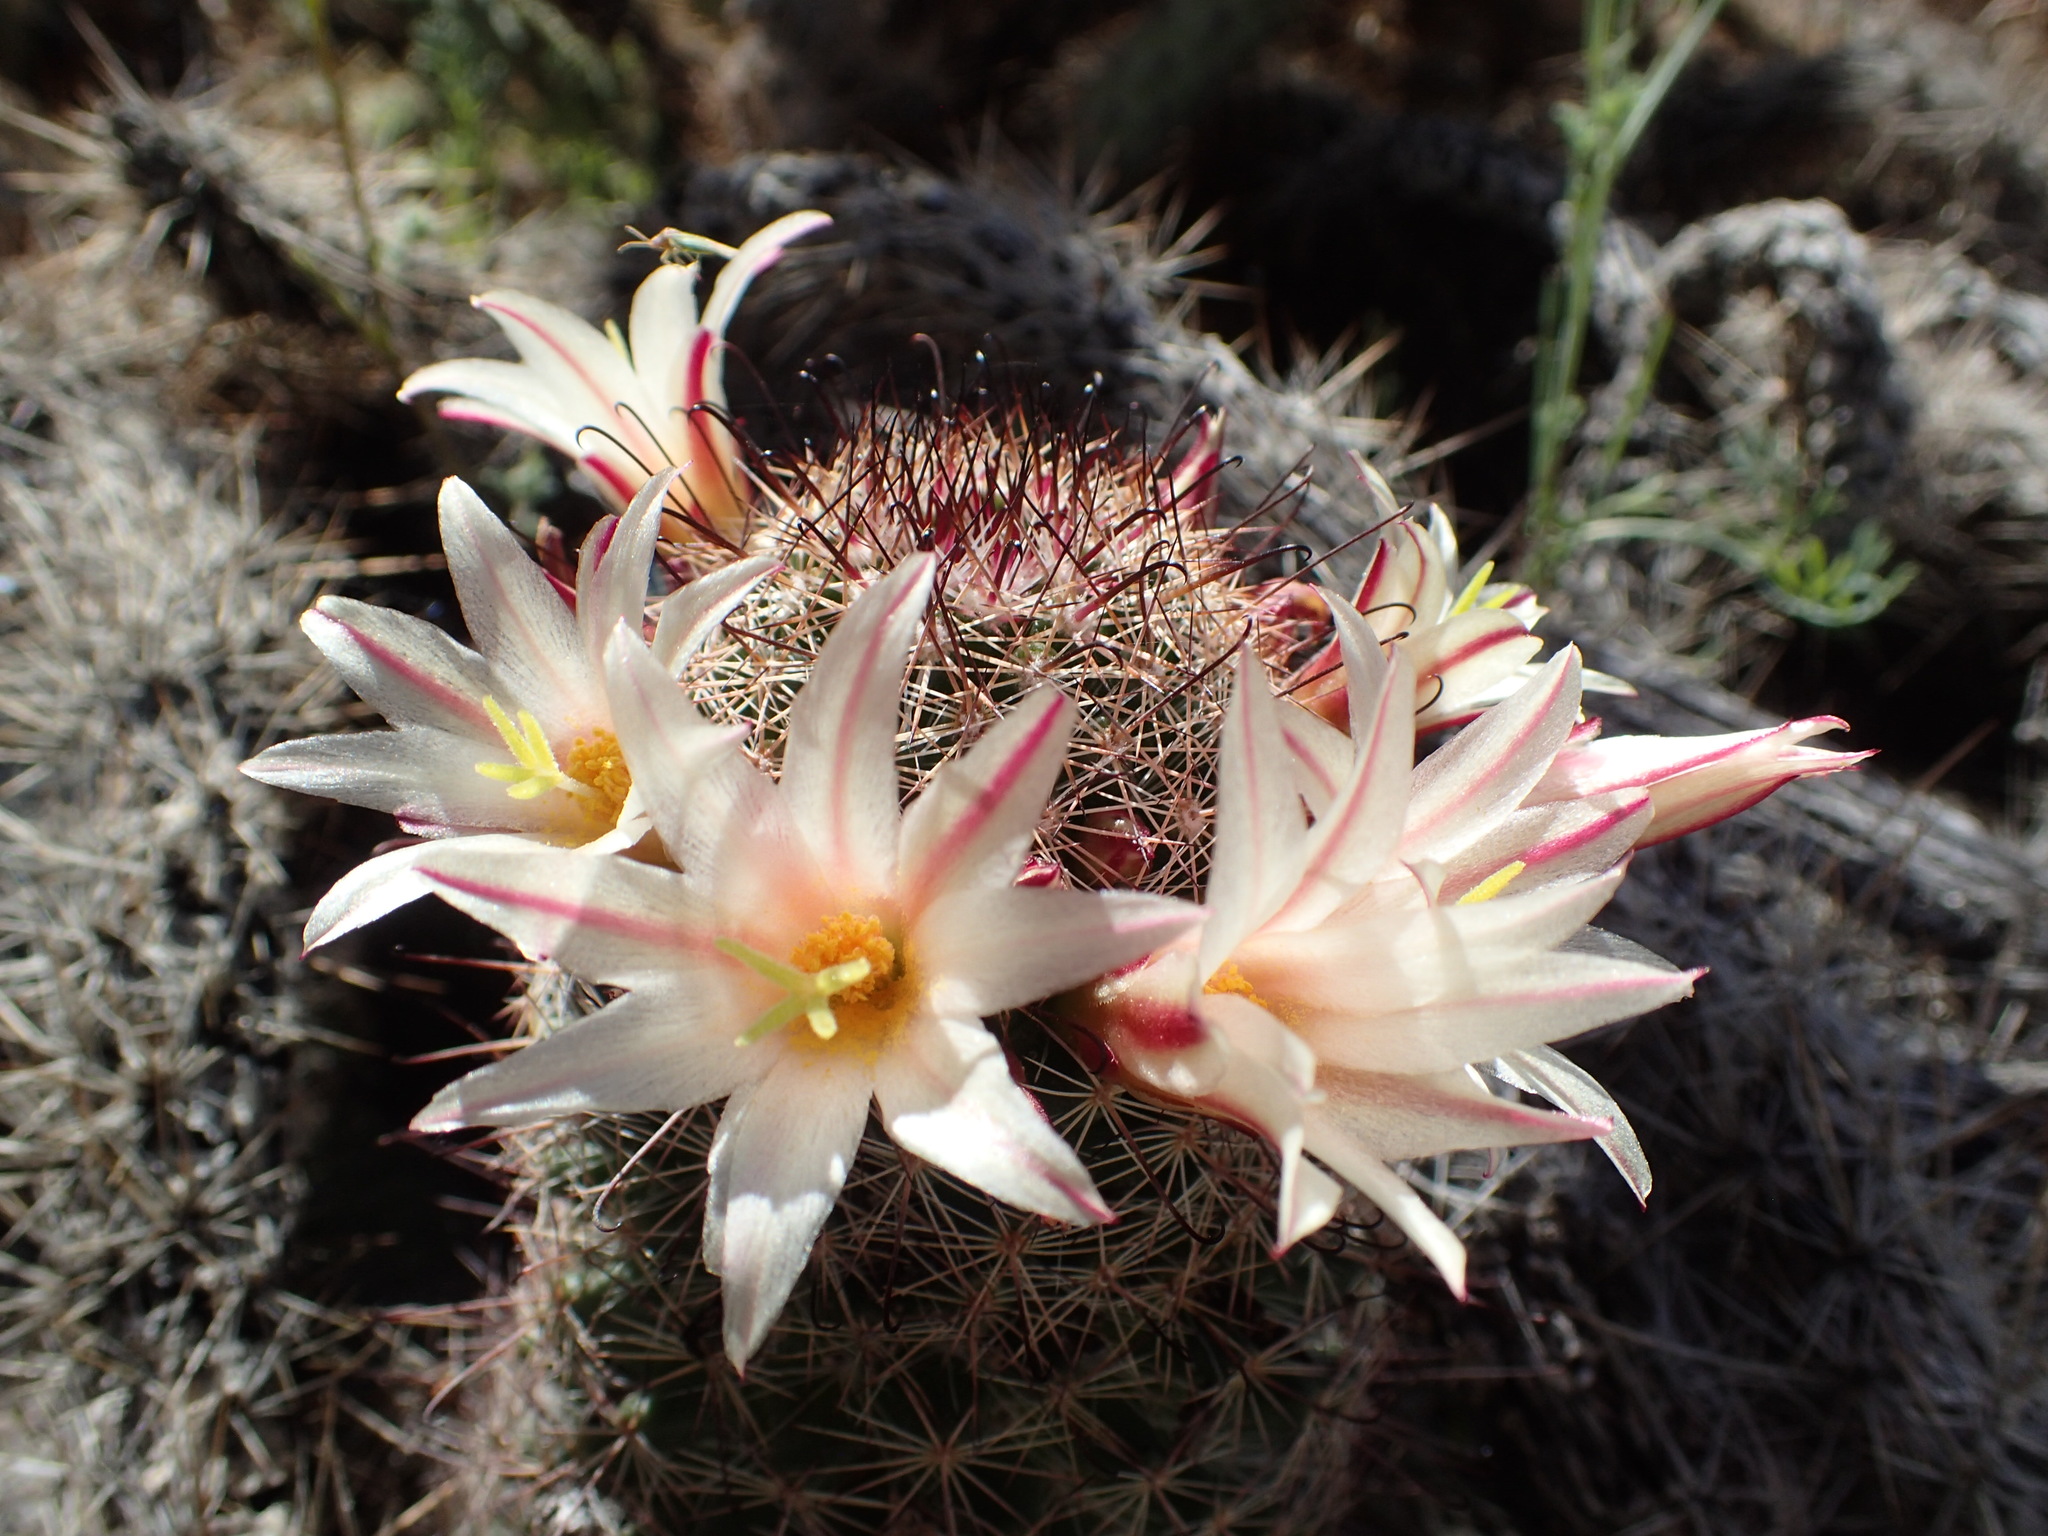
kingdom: Plantae
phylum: Tracheophyta
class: Magnoliopsida
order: Caryophyllales
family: Cactaceae
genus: Cochemiea
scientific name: Cochemiea dioica
